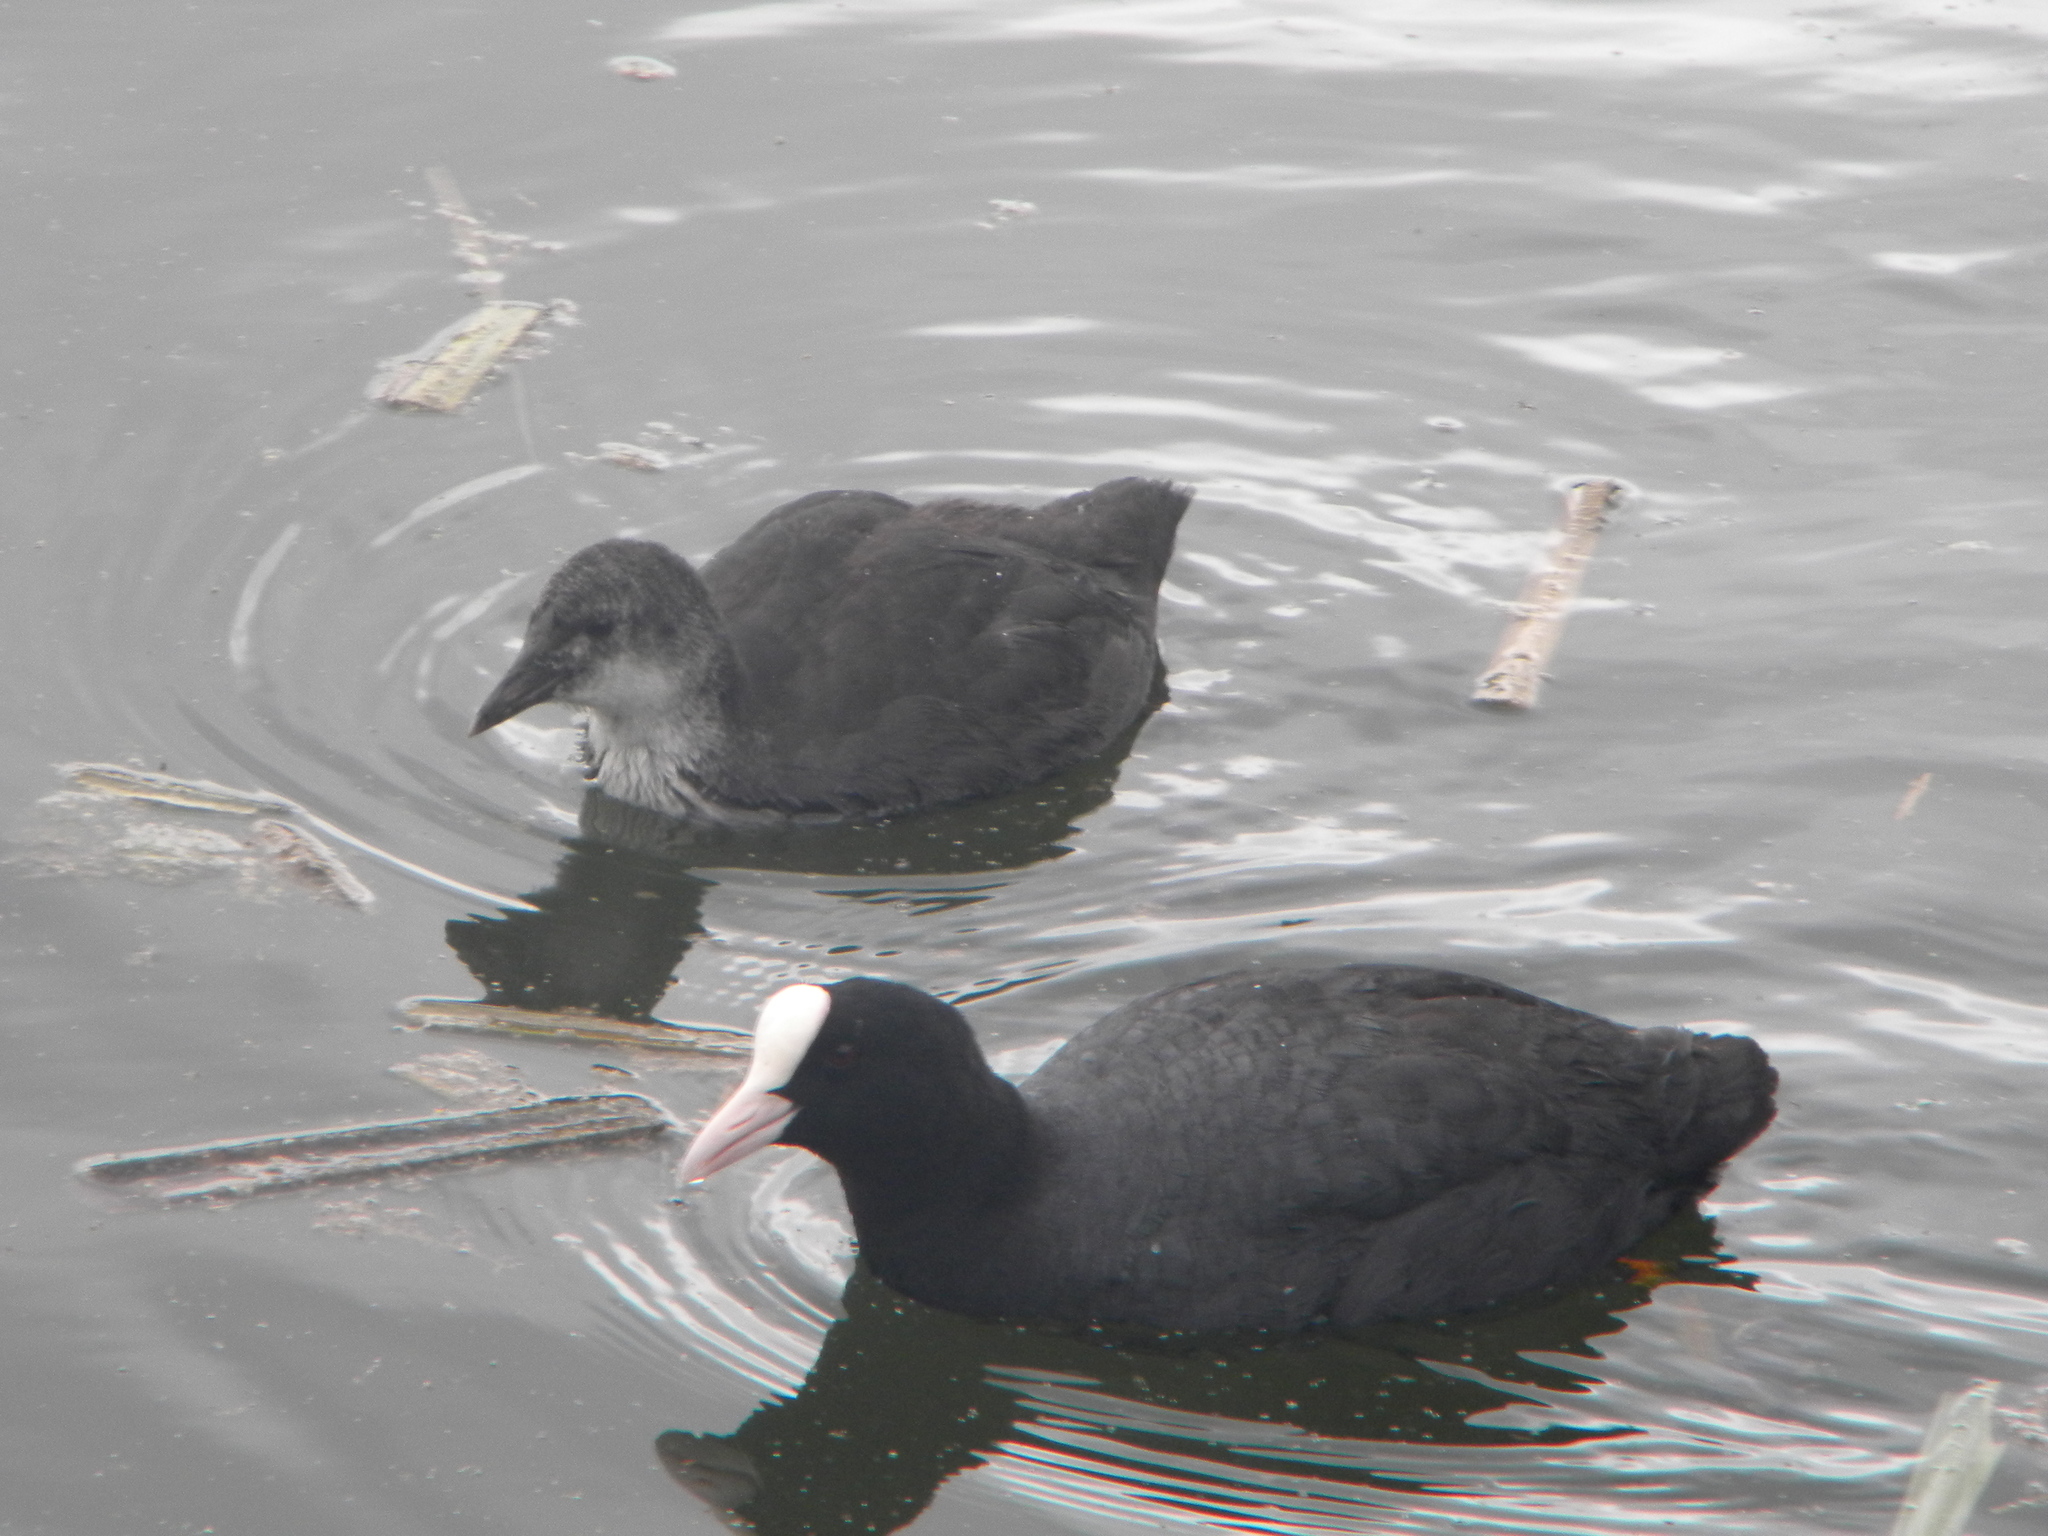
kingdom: Animalia
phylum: Chordata
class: Aves
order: Gruiformes
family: Rallidae
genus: Fulica
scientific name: Fulica atra
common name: Eurasian coot
